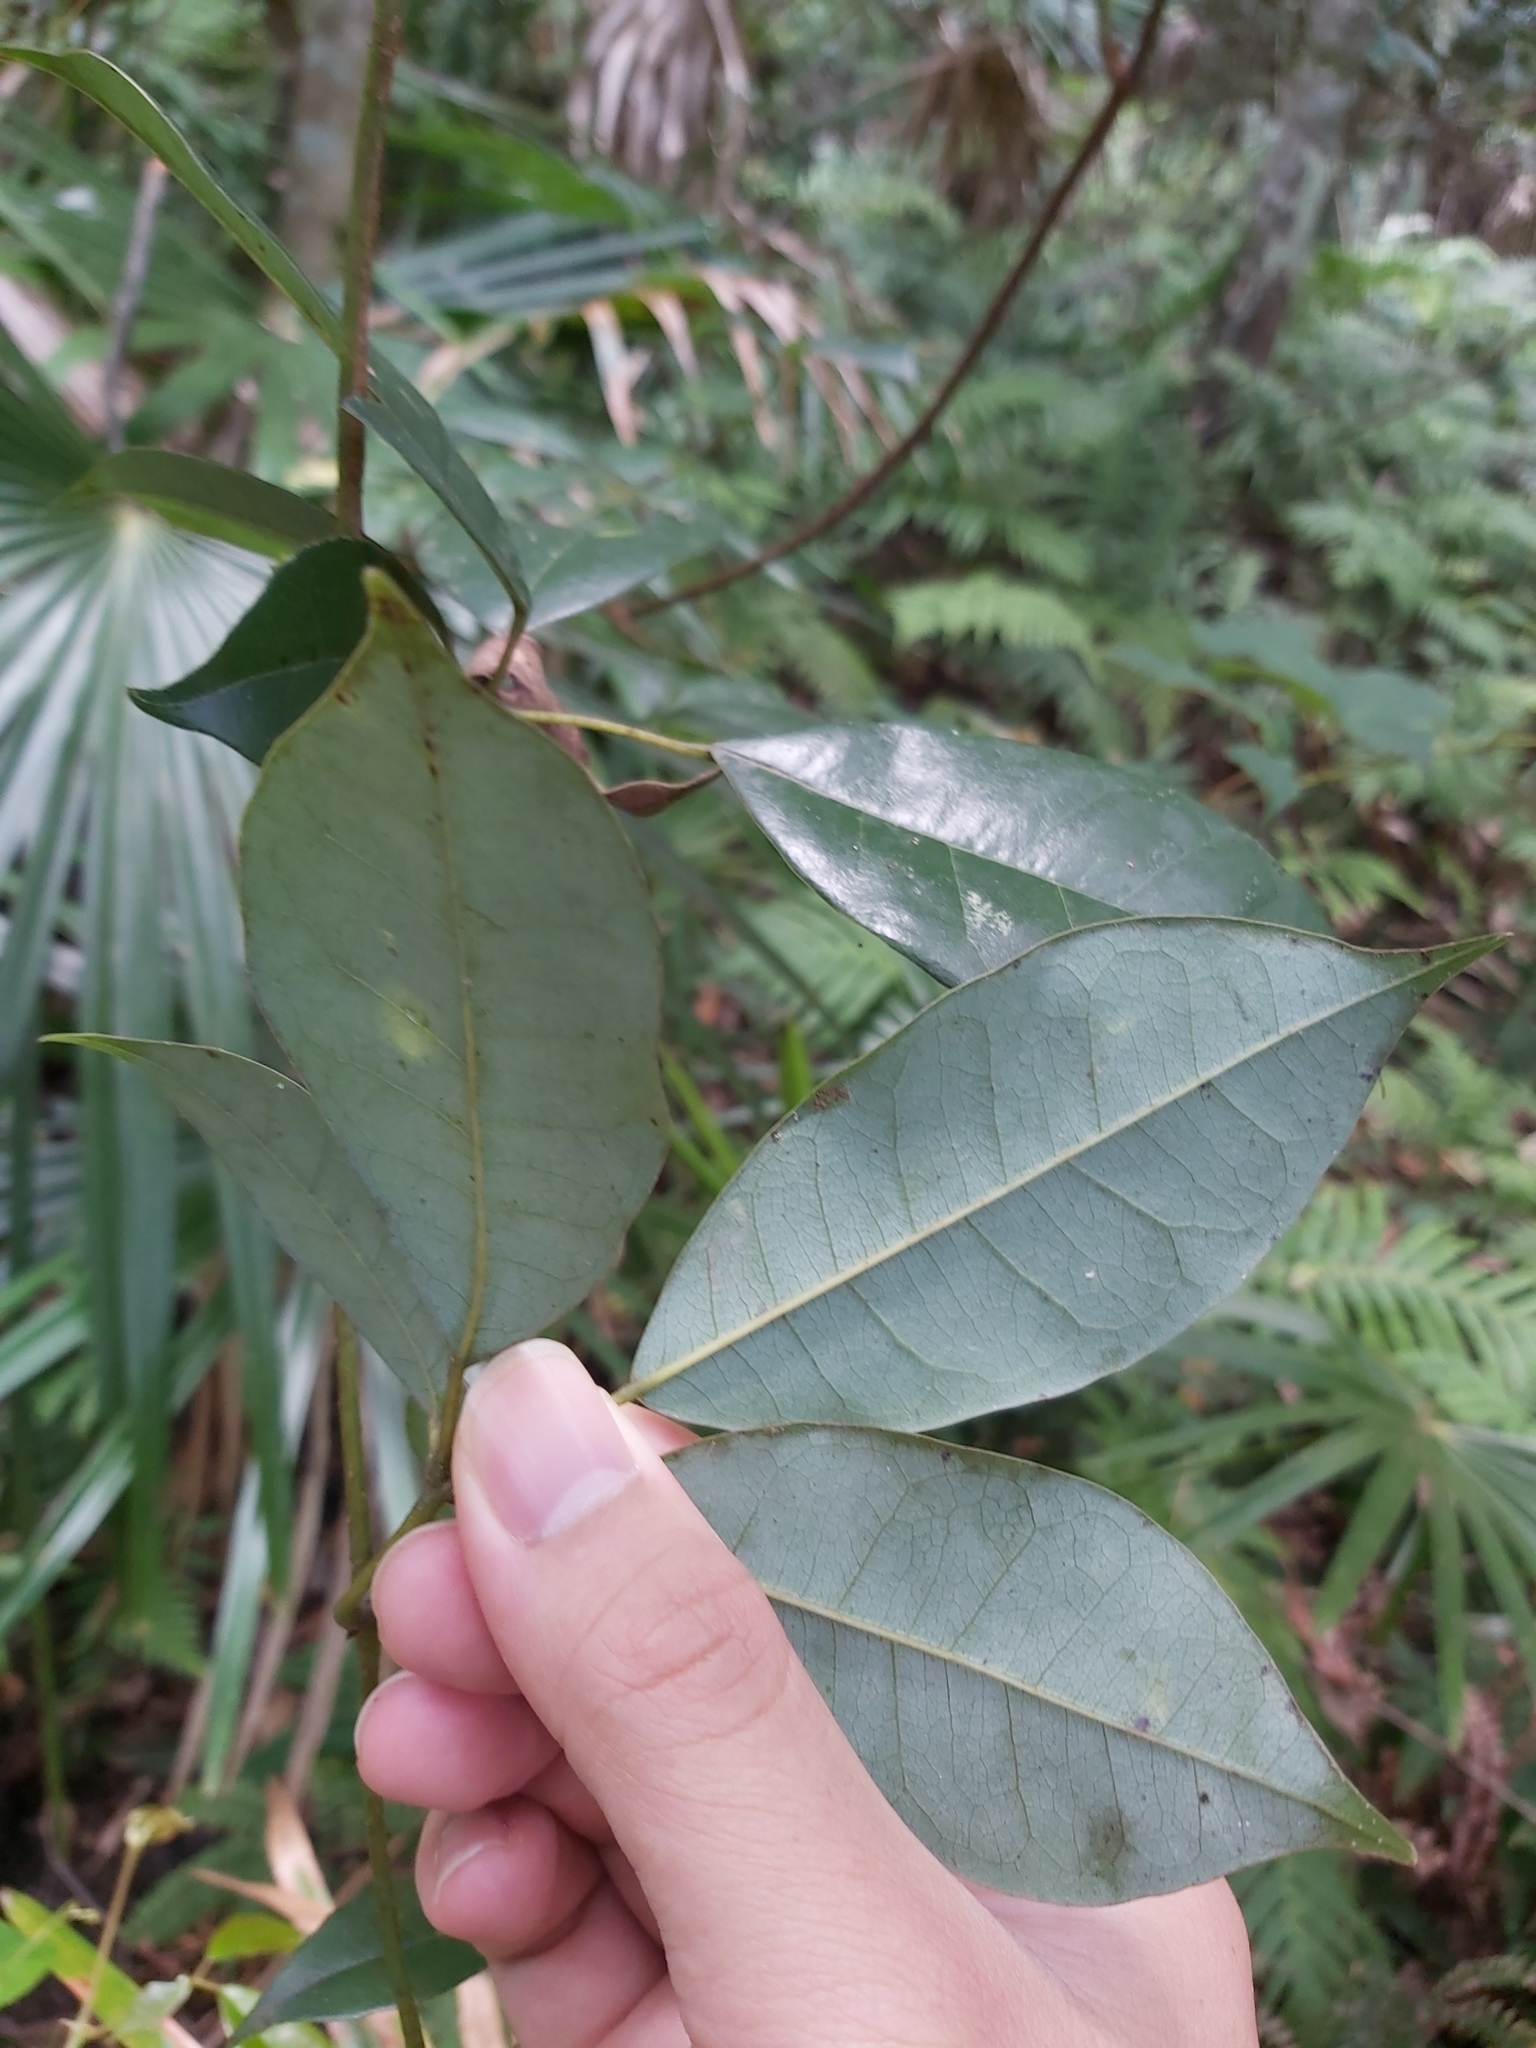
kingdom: Plantae
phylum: Tracheophyta
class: Magnoliopsida
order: Vitales
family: Vitaceae
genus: Nothocissus
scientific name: Nothocissus hypoglauca
